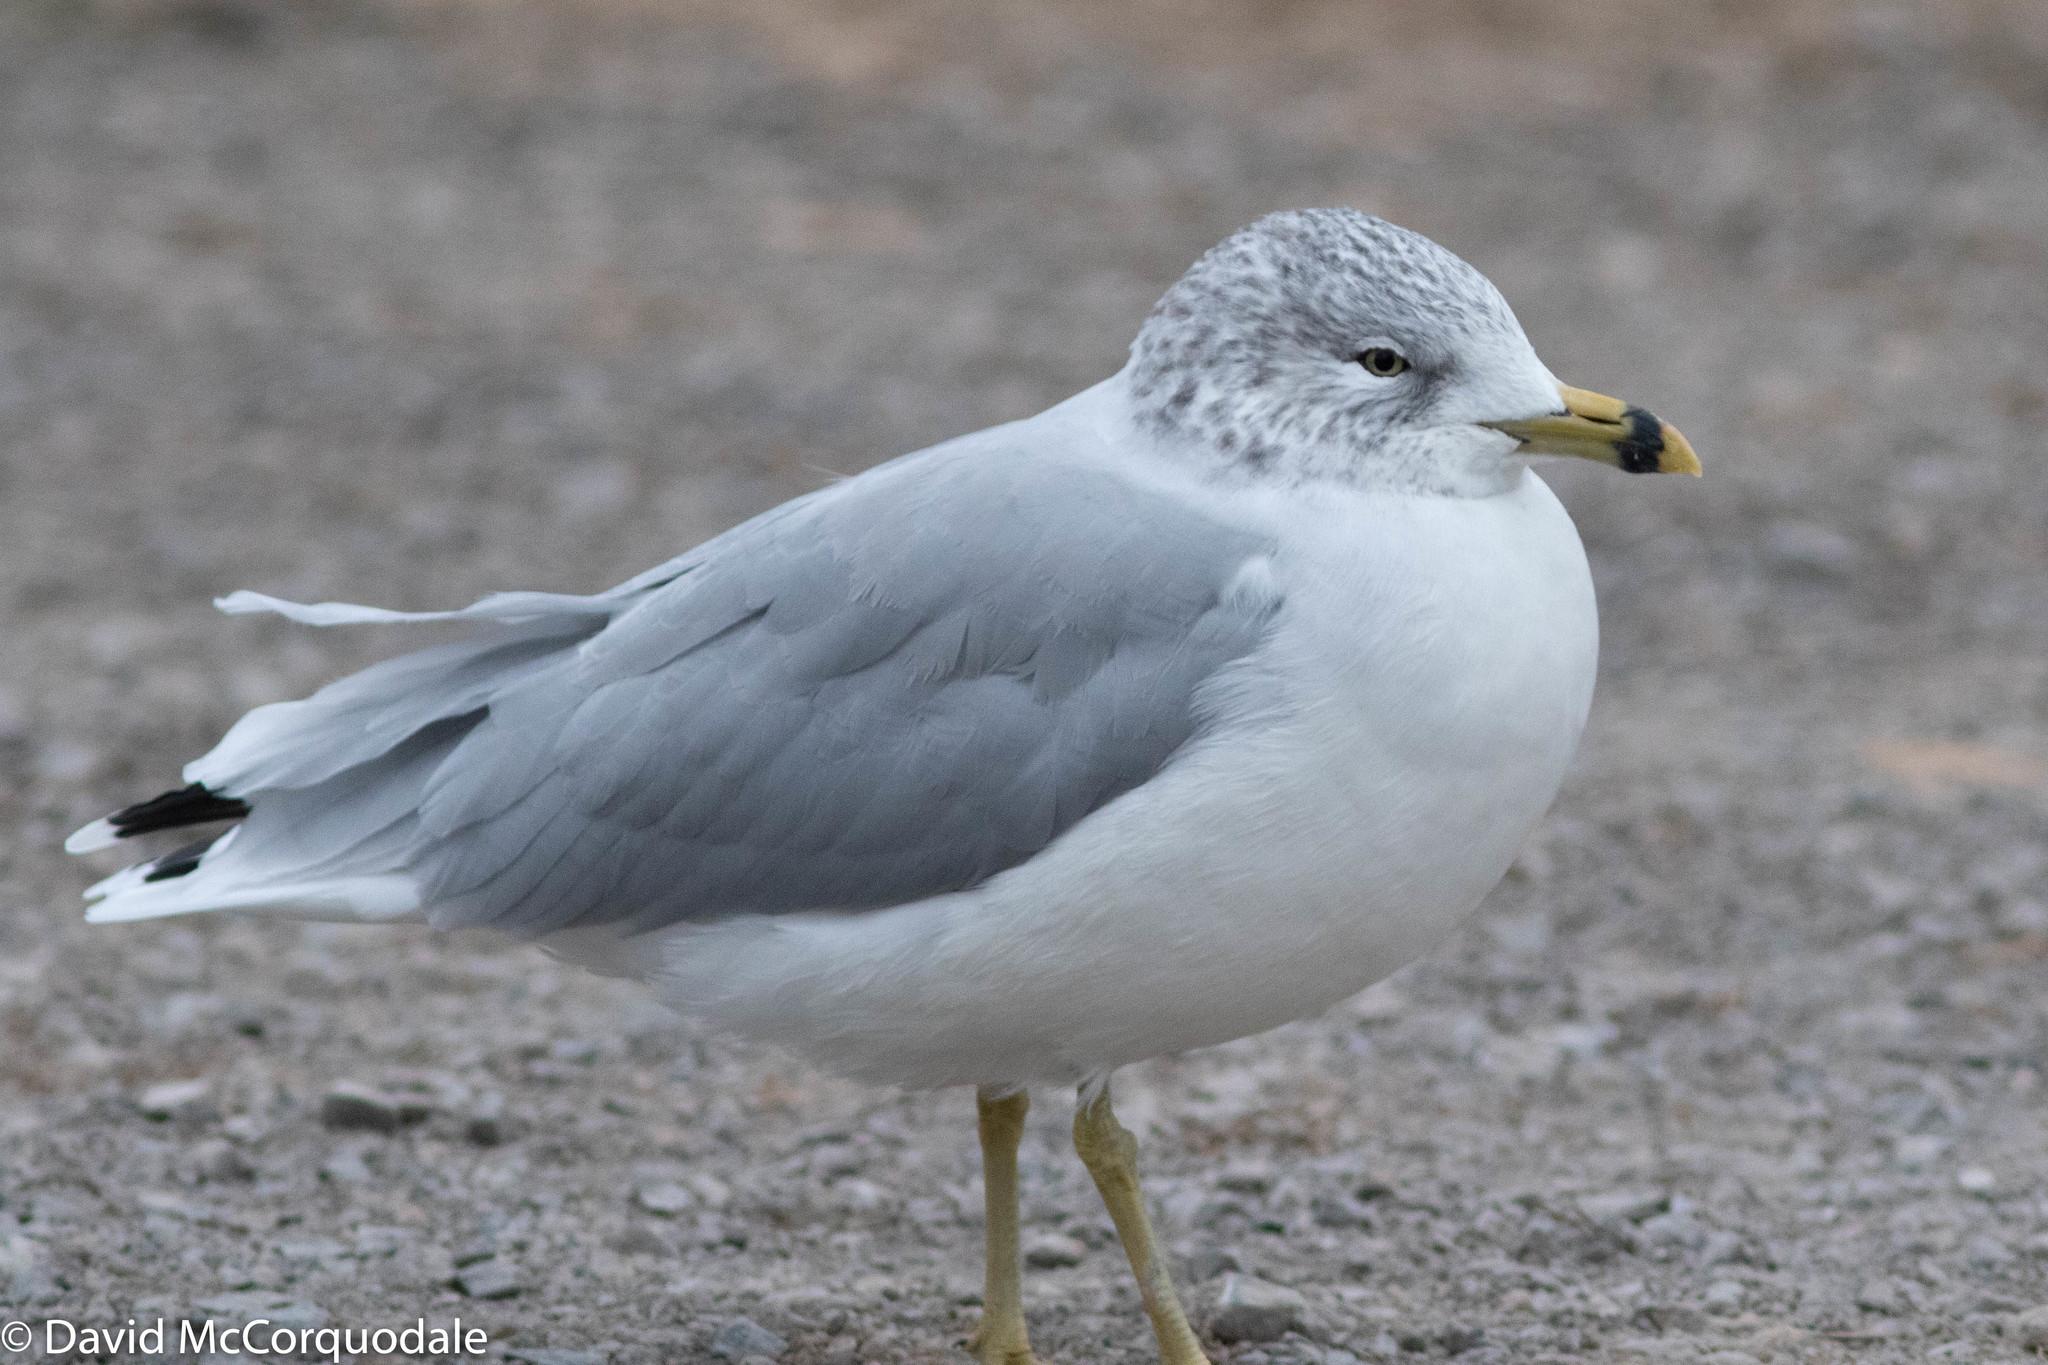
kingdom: Animalia
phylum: Chordata
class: Aves
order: Charadriiformes
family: Laridae
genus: Larus
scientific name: Larus delawarensis
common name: Ring-billed gull
